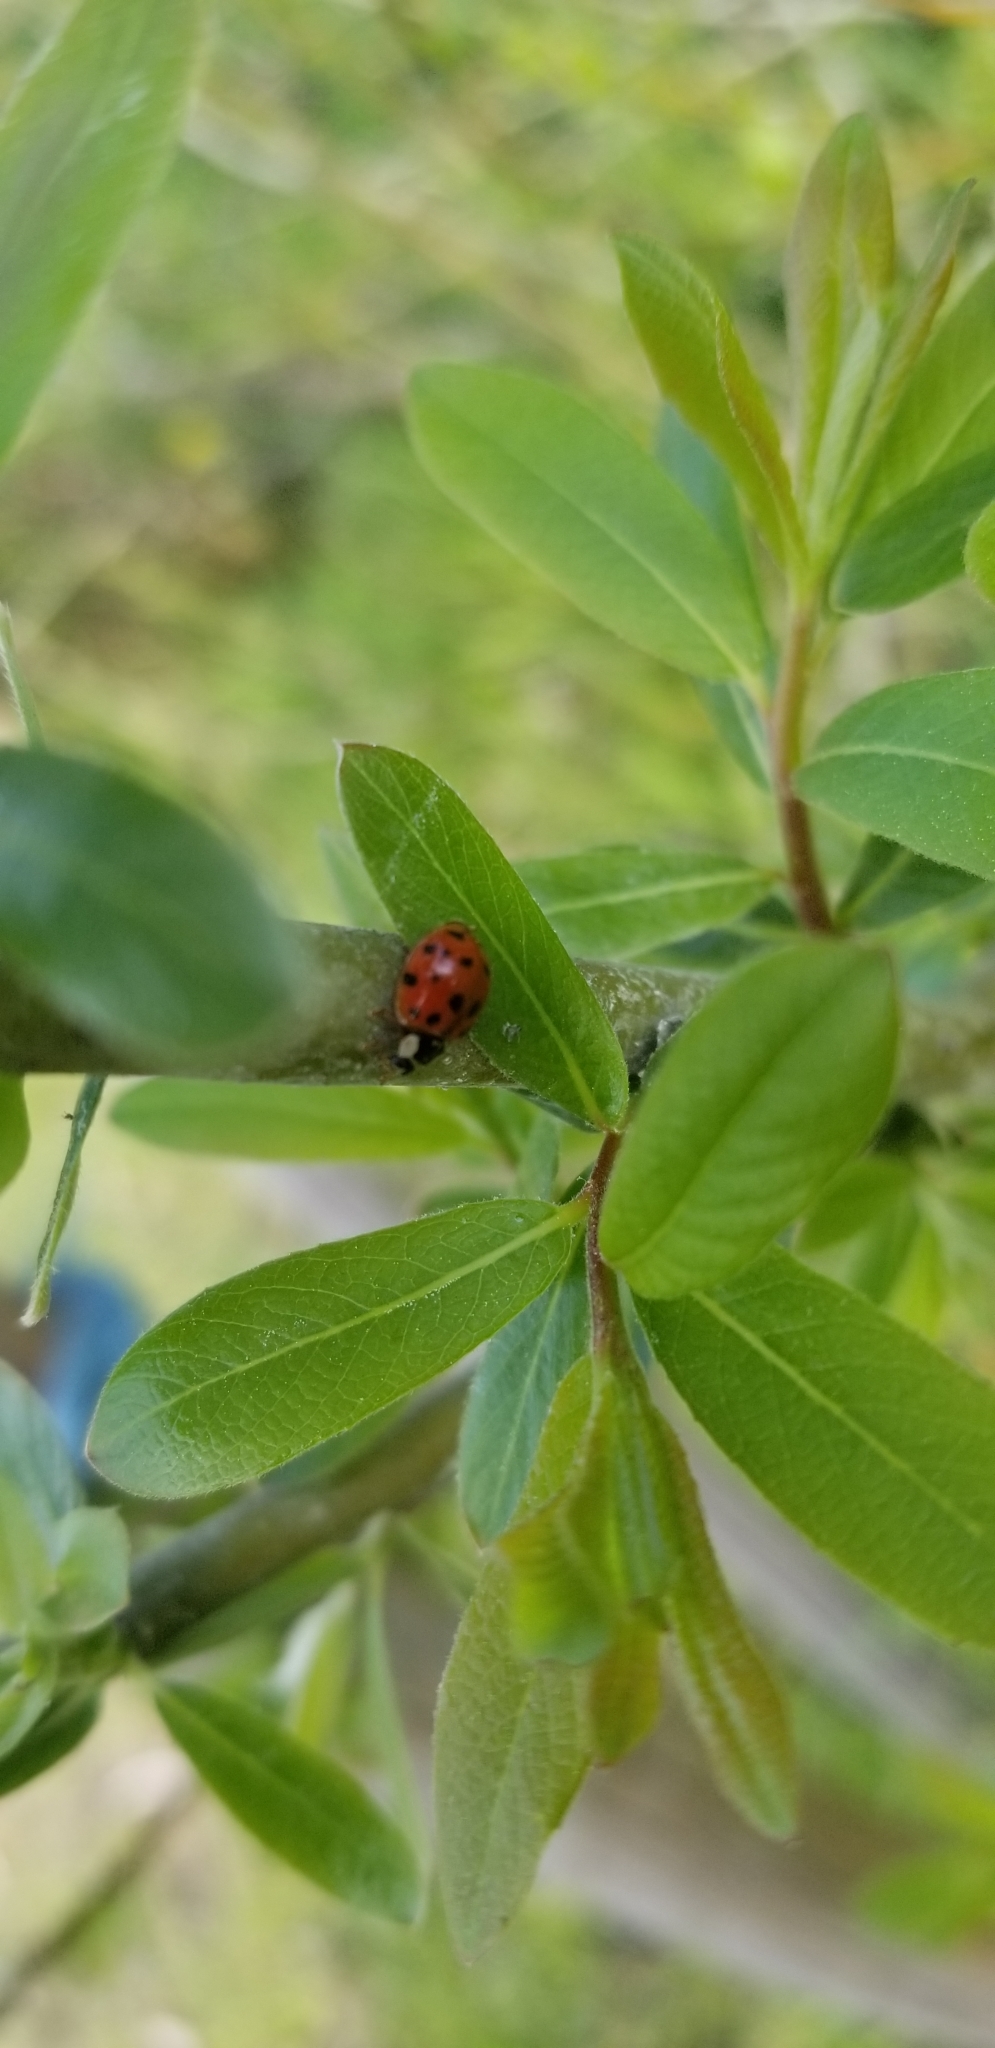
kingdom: Animalia
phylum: Arthropoda
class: Insecta
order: Coleoptera
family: Coccinellidae
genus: Harmonia
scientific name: Harmonia axyridis
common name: Harlequin ladybird
